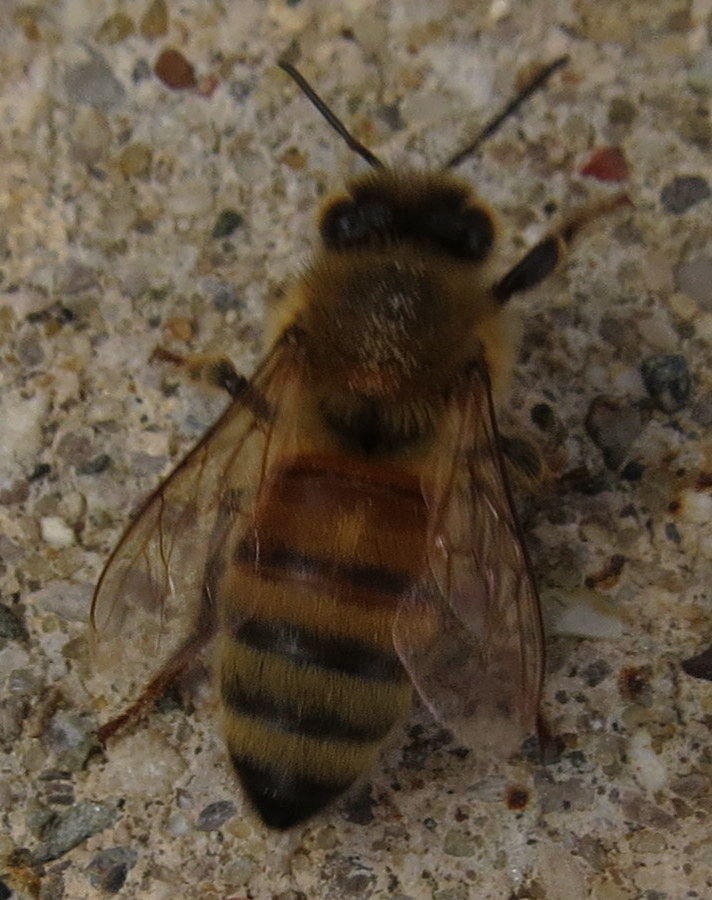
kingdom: Animalia
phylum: Arthropoda
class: Insecta
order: Hymenoptera
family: Apidae
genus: Apis
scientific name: Apis mellifera
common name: Honey bee
